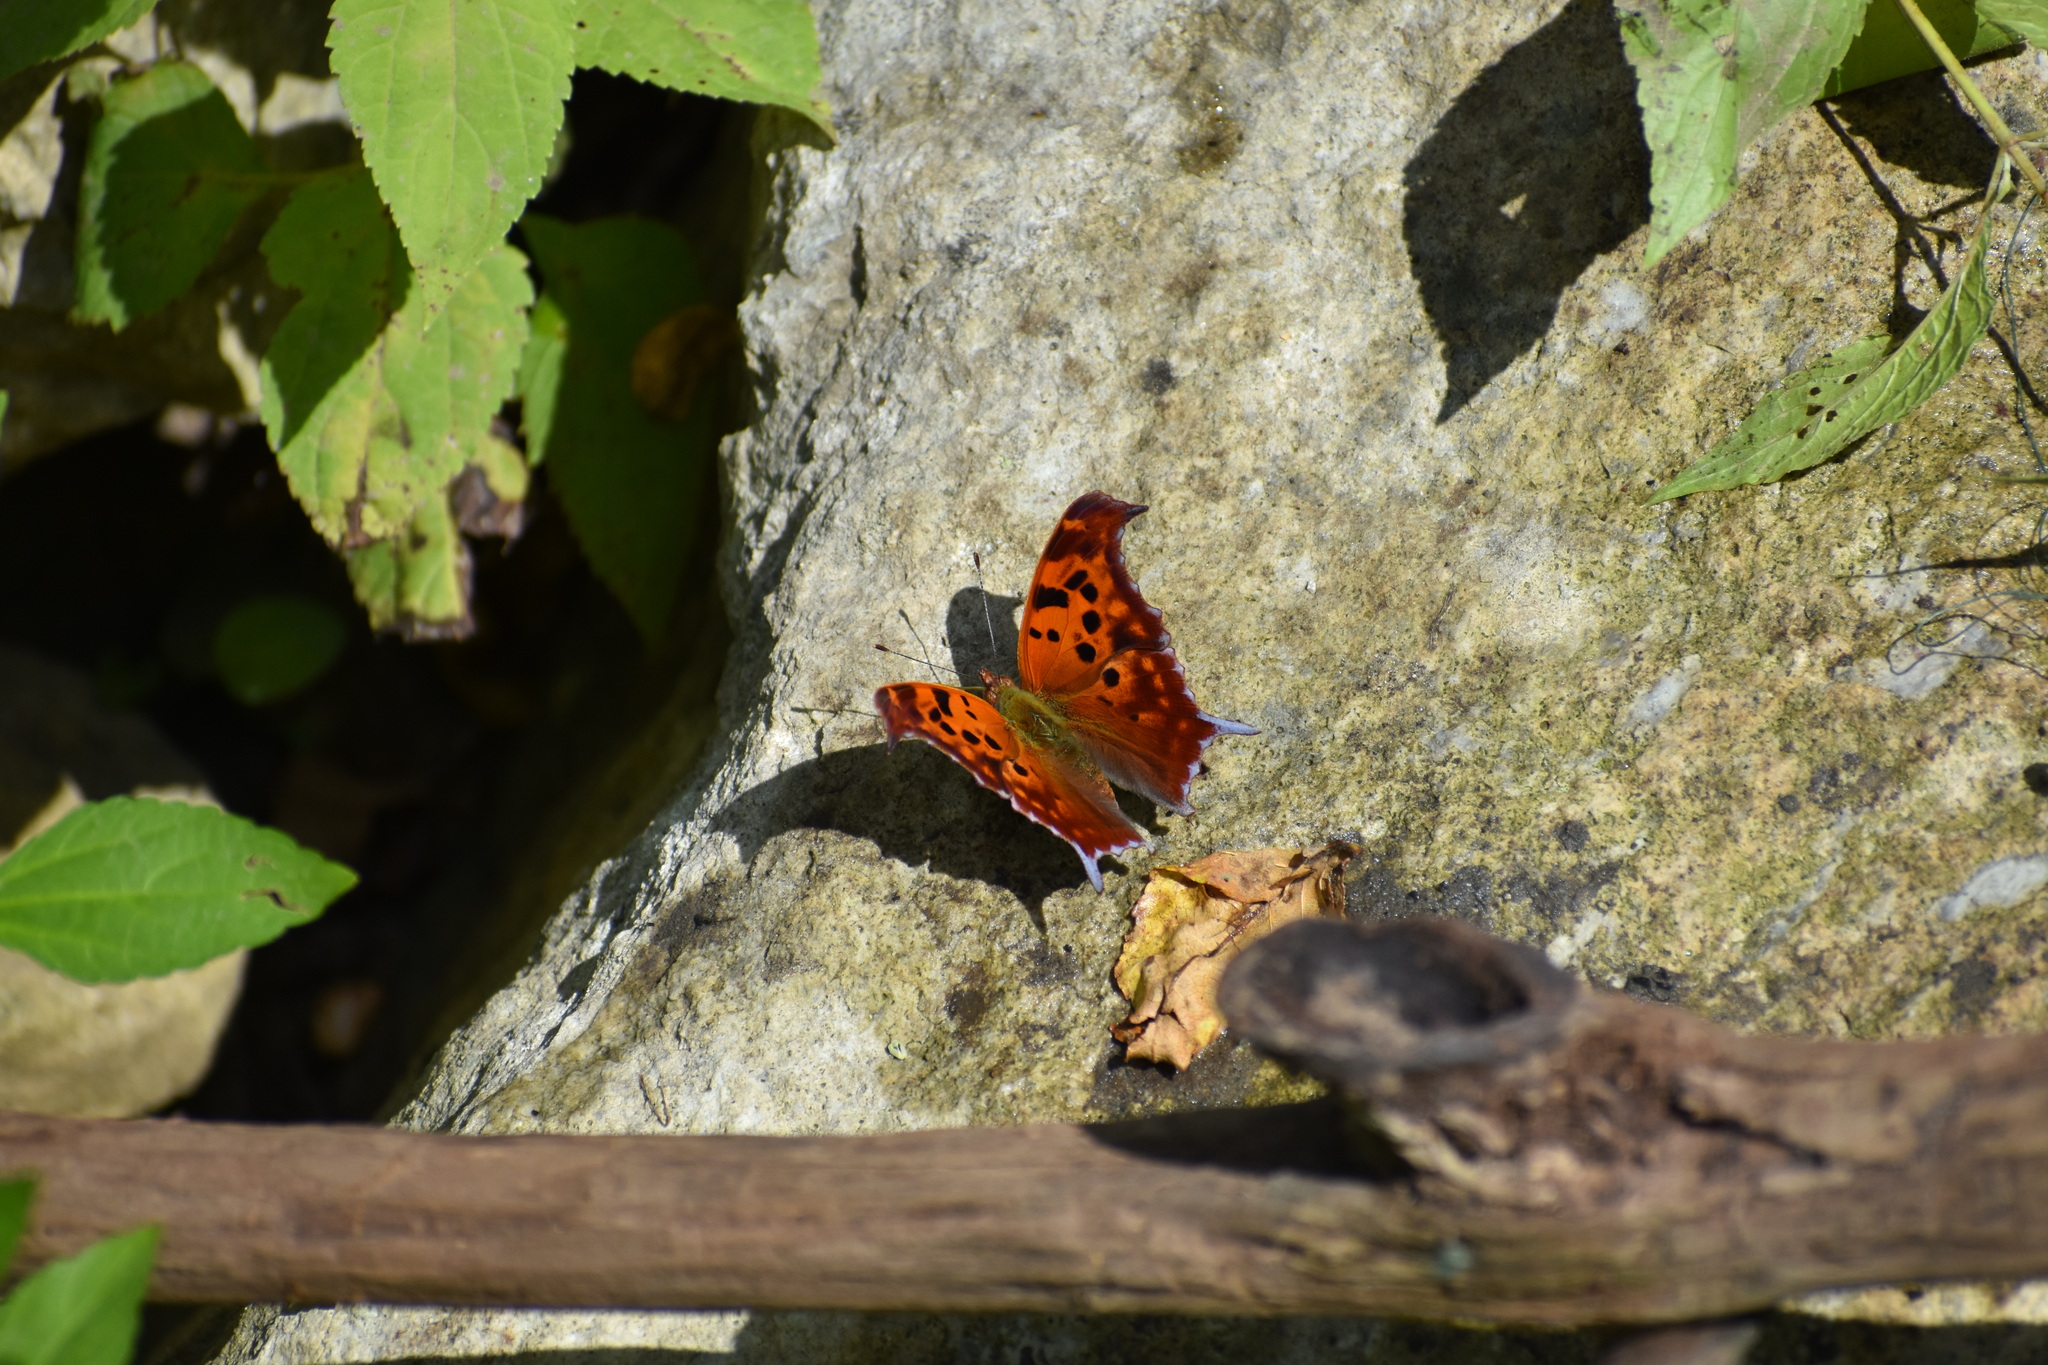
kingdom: Animalia
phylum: Arthropoda
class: Insecta
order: Lepidoptera
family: Nymphalidae
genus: Polygonia
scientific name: Polygonia interrogationis
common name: Question mark
